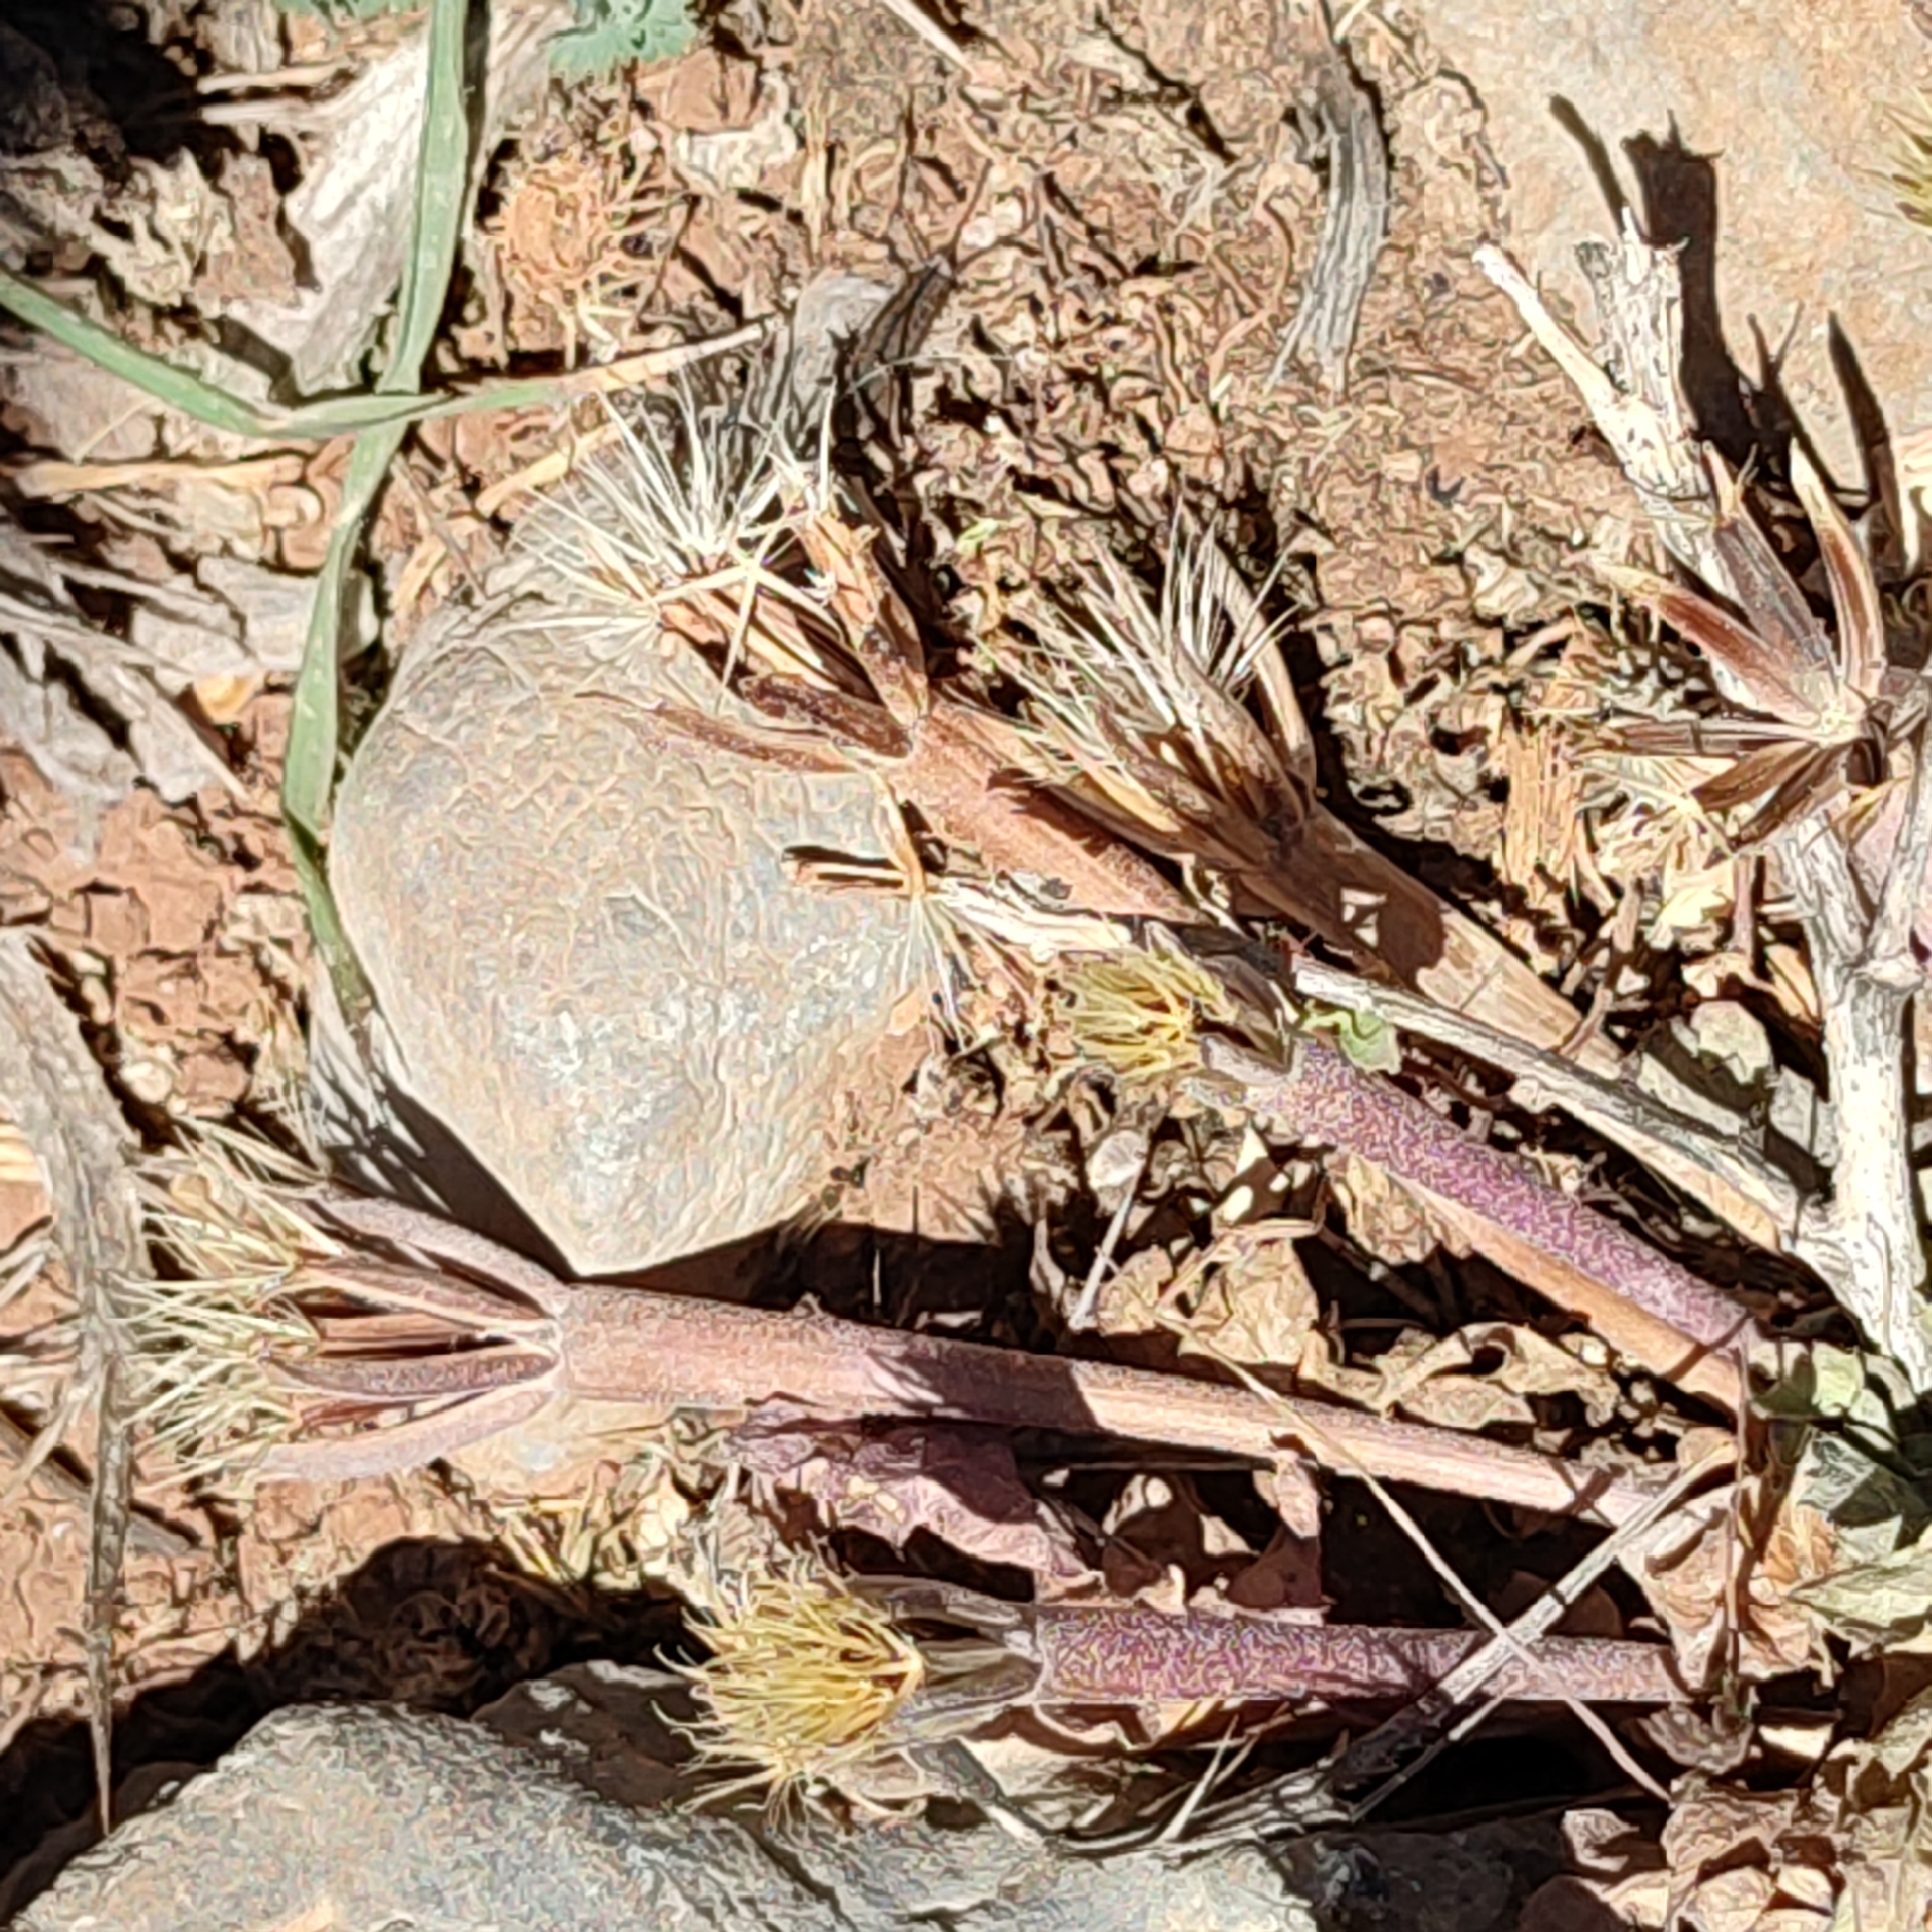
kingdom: Plantae
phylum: Tracheophyta
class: Magnoliopsida
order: Asterales
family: Asteraceae
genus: Hedypnois
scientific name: Hedypnois rhagadioloides
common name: Cretan weed
